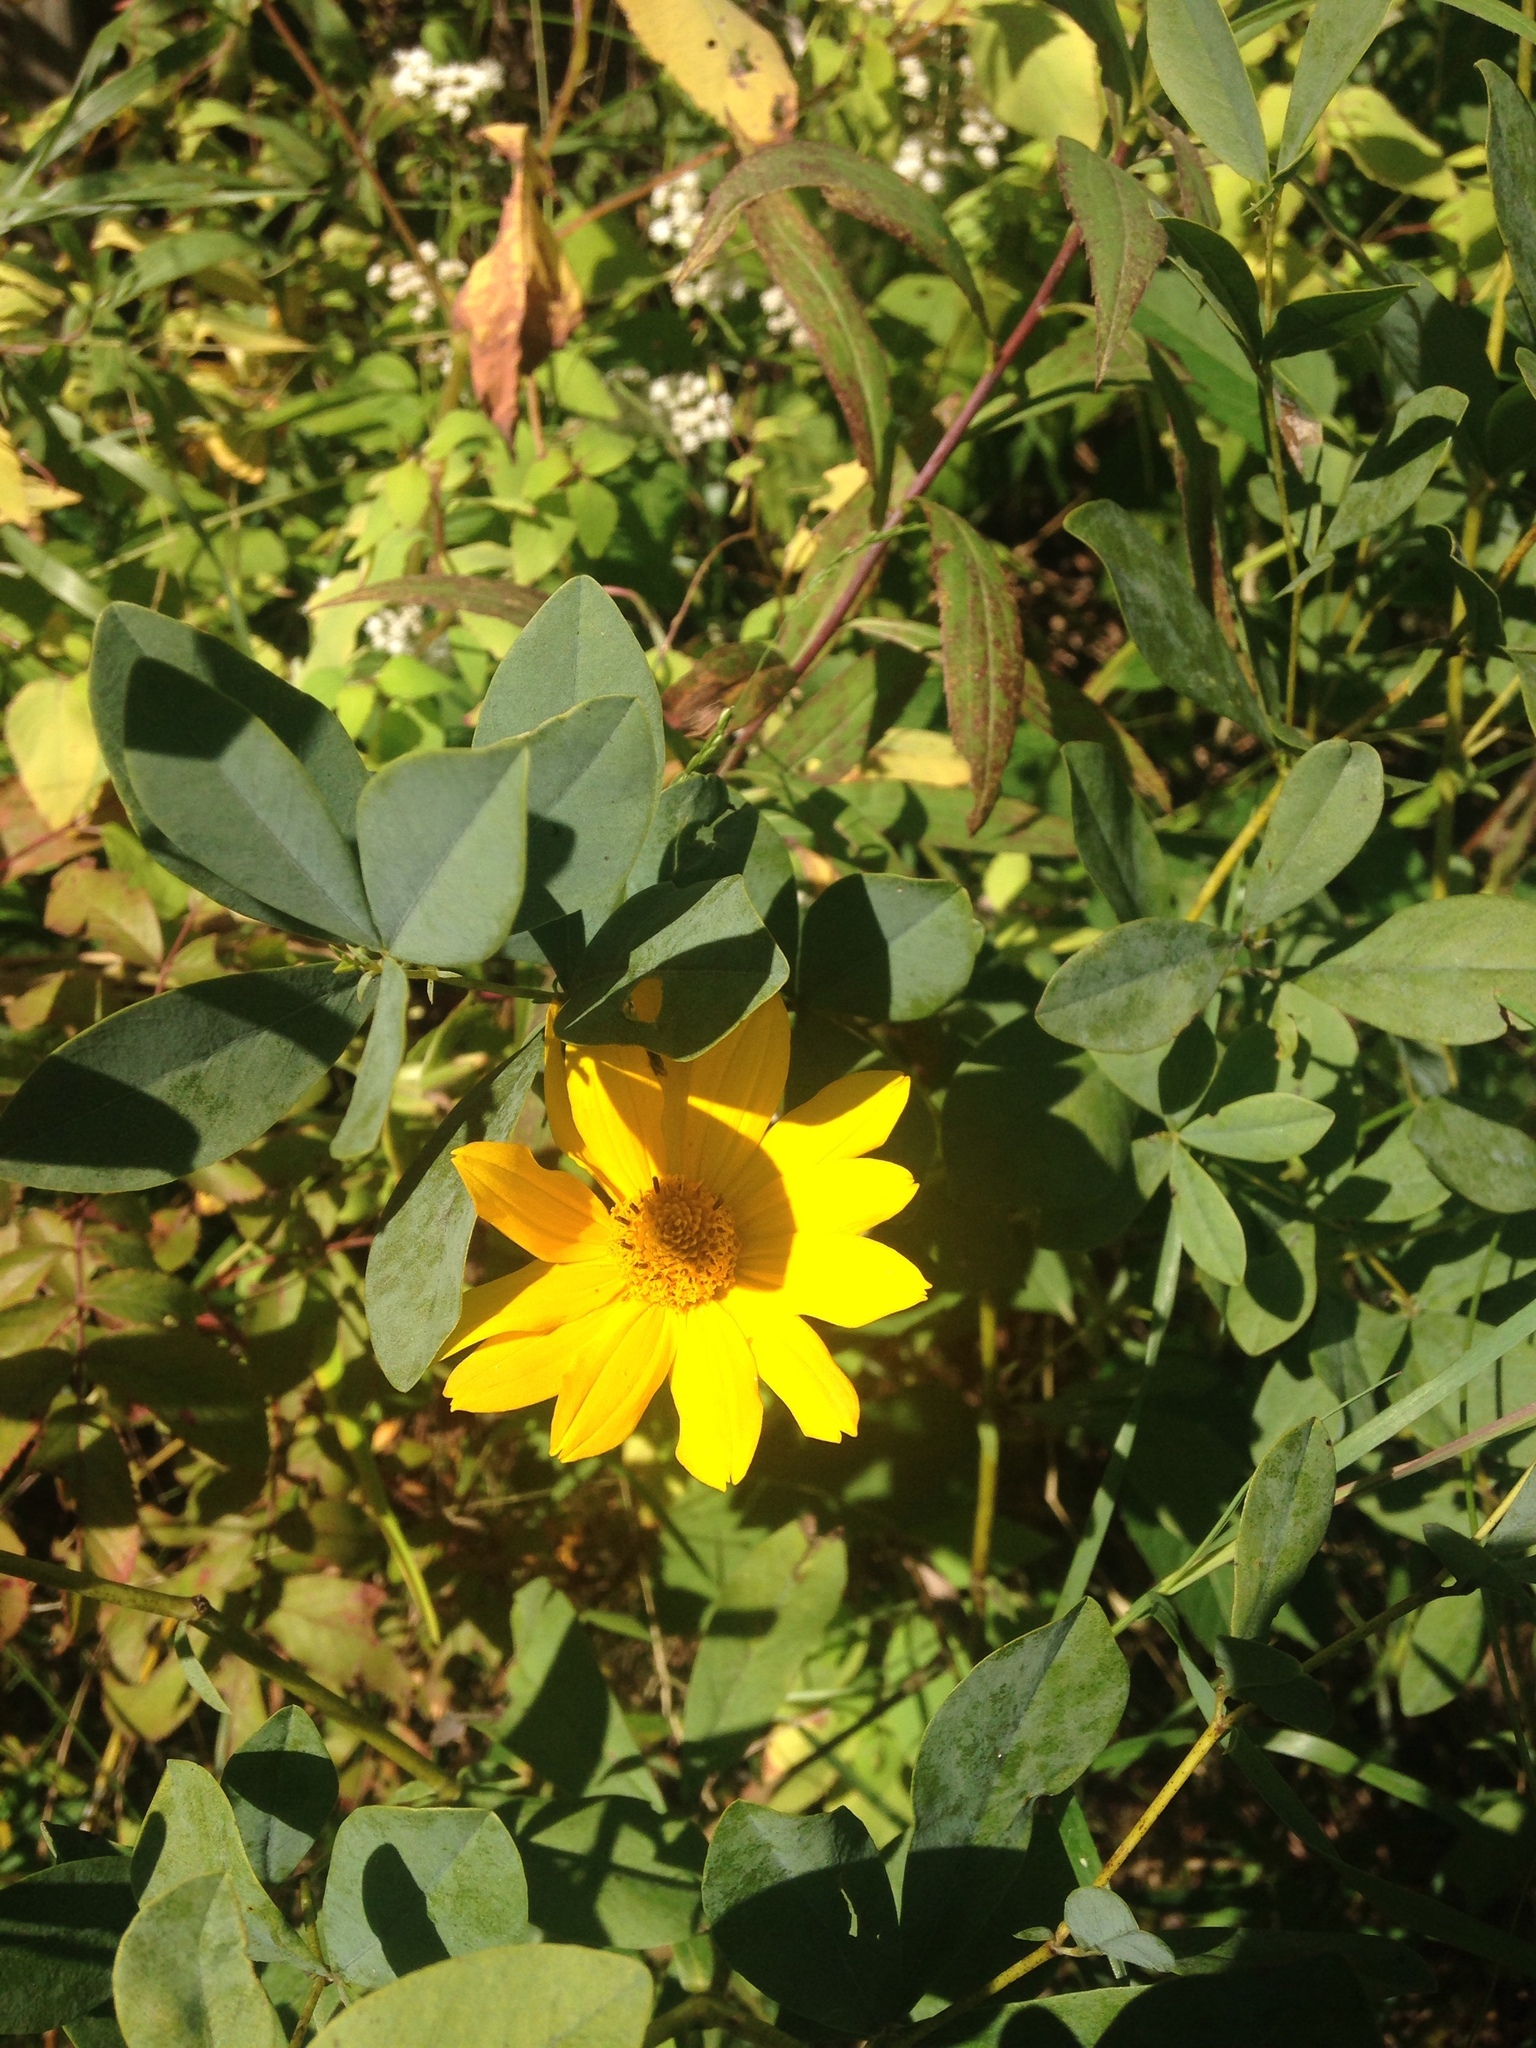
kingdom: Plantae
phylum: Tracheophyta
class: Magnoliopsida
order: Fabales
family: Fabaceae
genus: Baptisia
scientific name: Baptisia alba
